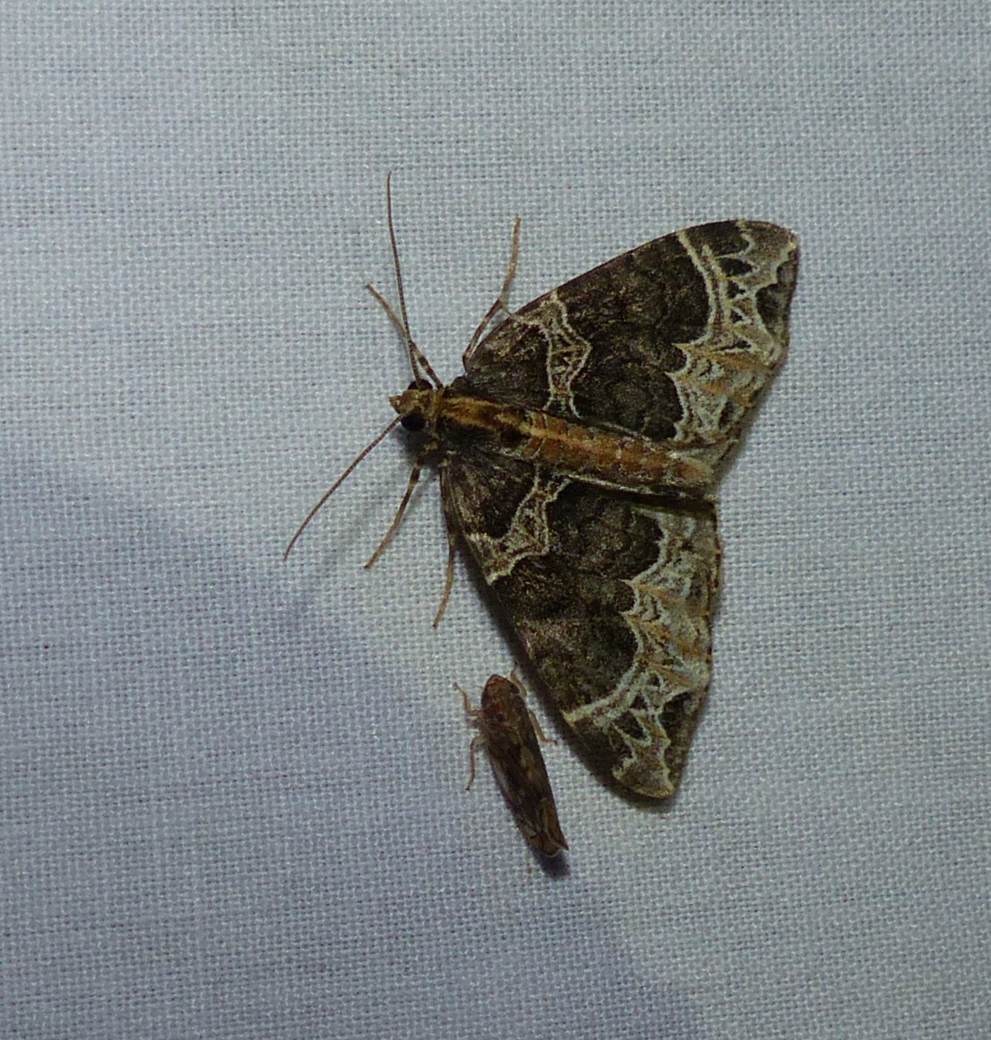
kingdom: Animalia
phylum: Arthropoda
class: Insecta
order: Lepidoptera
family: Geometridae
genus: Ecliptopera
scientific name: Ecliptopera silaceata
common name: Small phoenix
